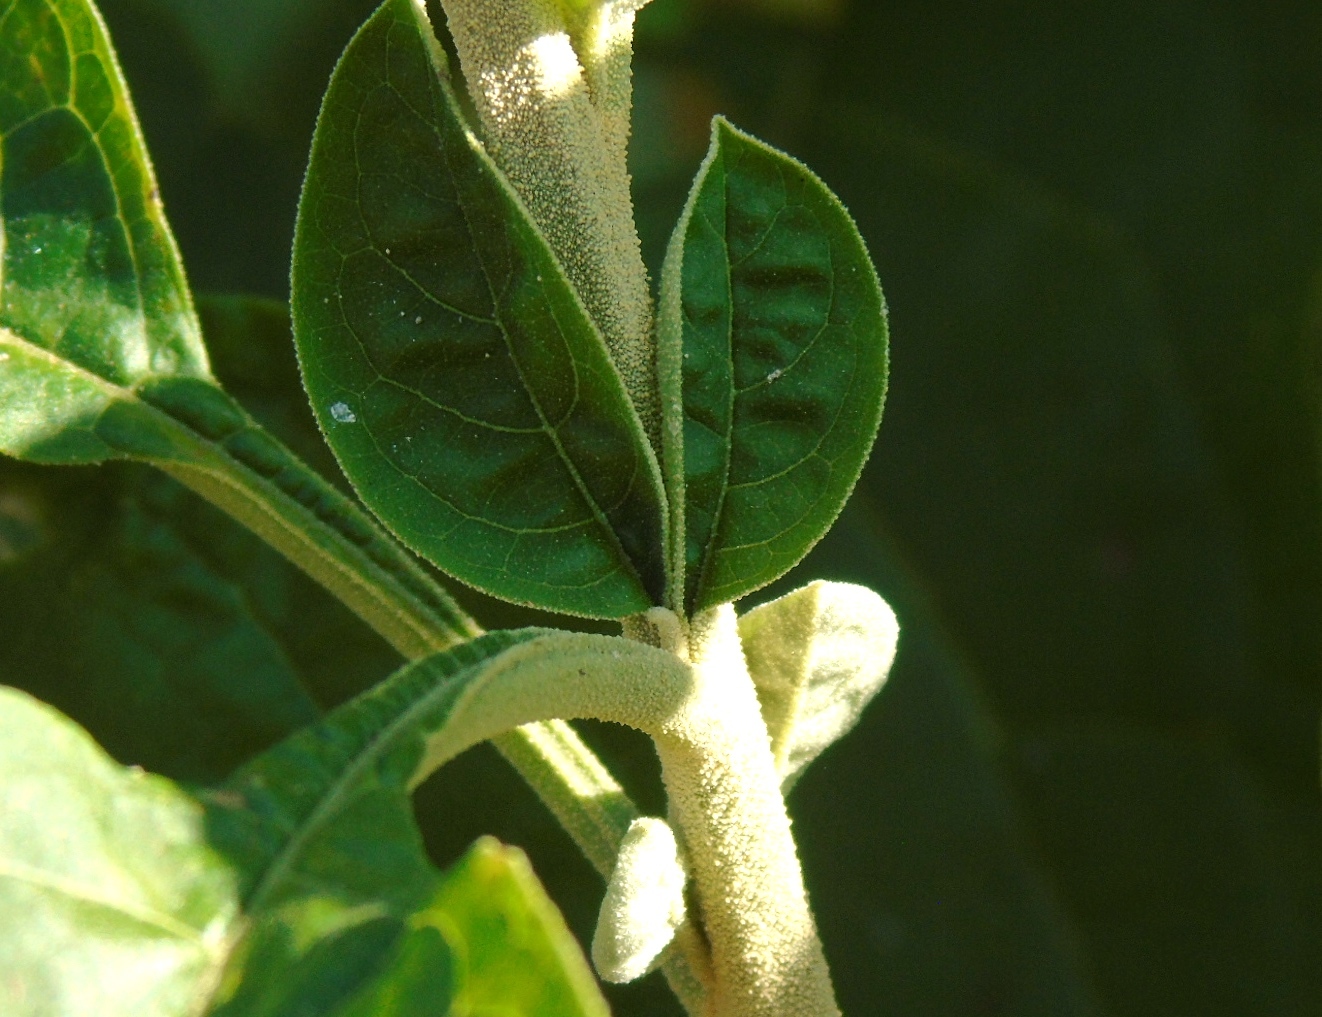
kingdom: Plantae
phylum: Tracheophyta
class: Magnoliopsida
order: Solanales
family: Solanaceae
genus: Solanum
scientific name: Solanum hazenii
